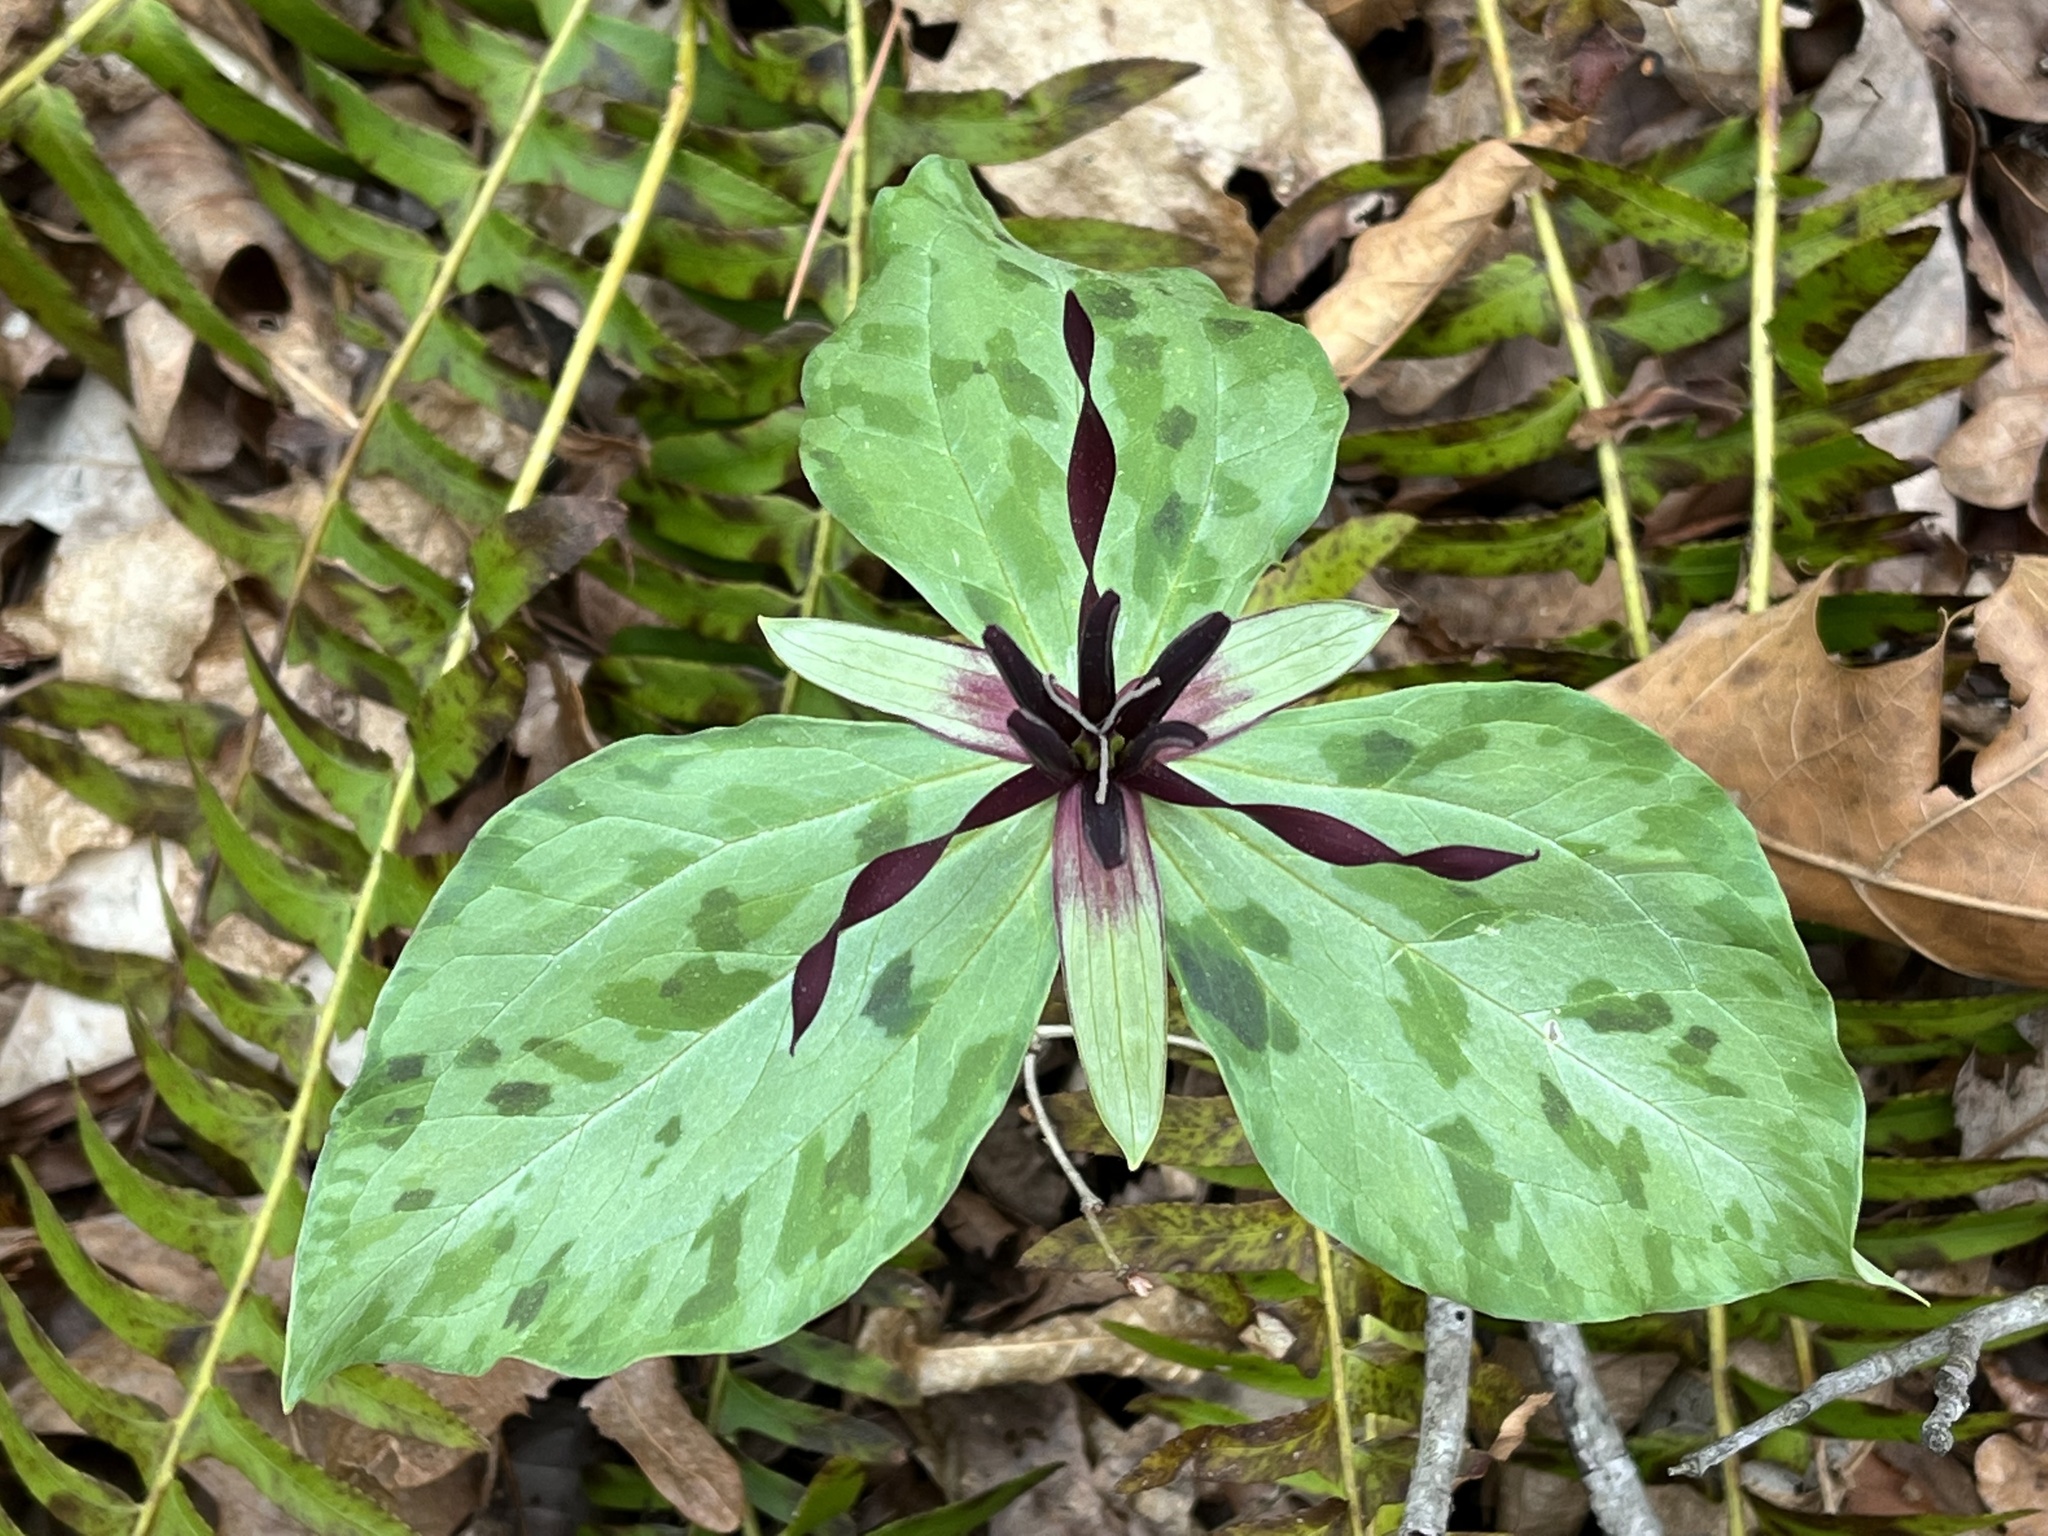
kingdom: Plantae
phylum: Tracheophyta
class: Liliopsida
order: Liliales
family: Melanthiaceae
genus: Trillium
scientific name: Trillium stamineum
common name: Blue ridge wakerobin
